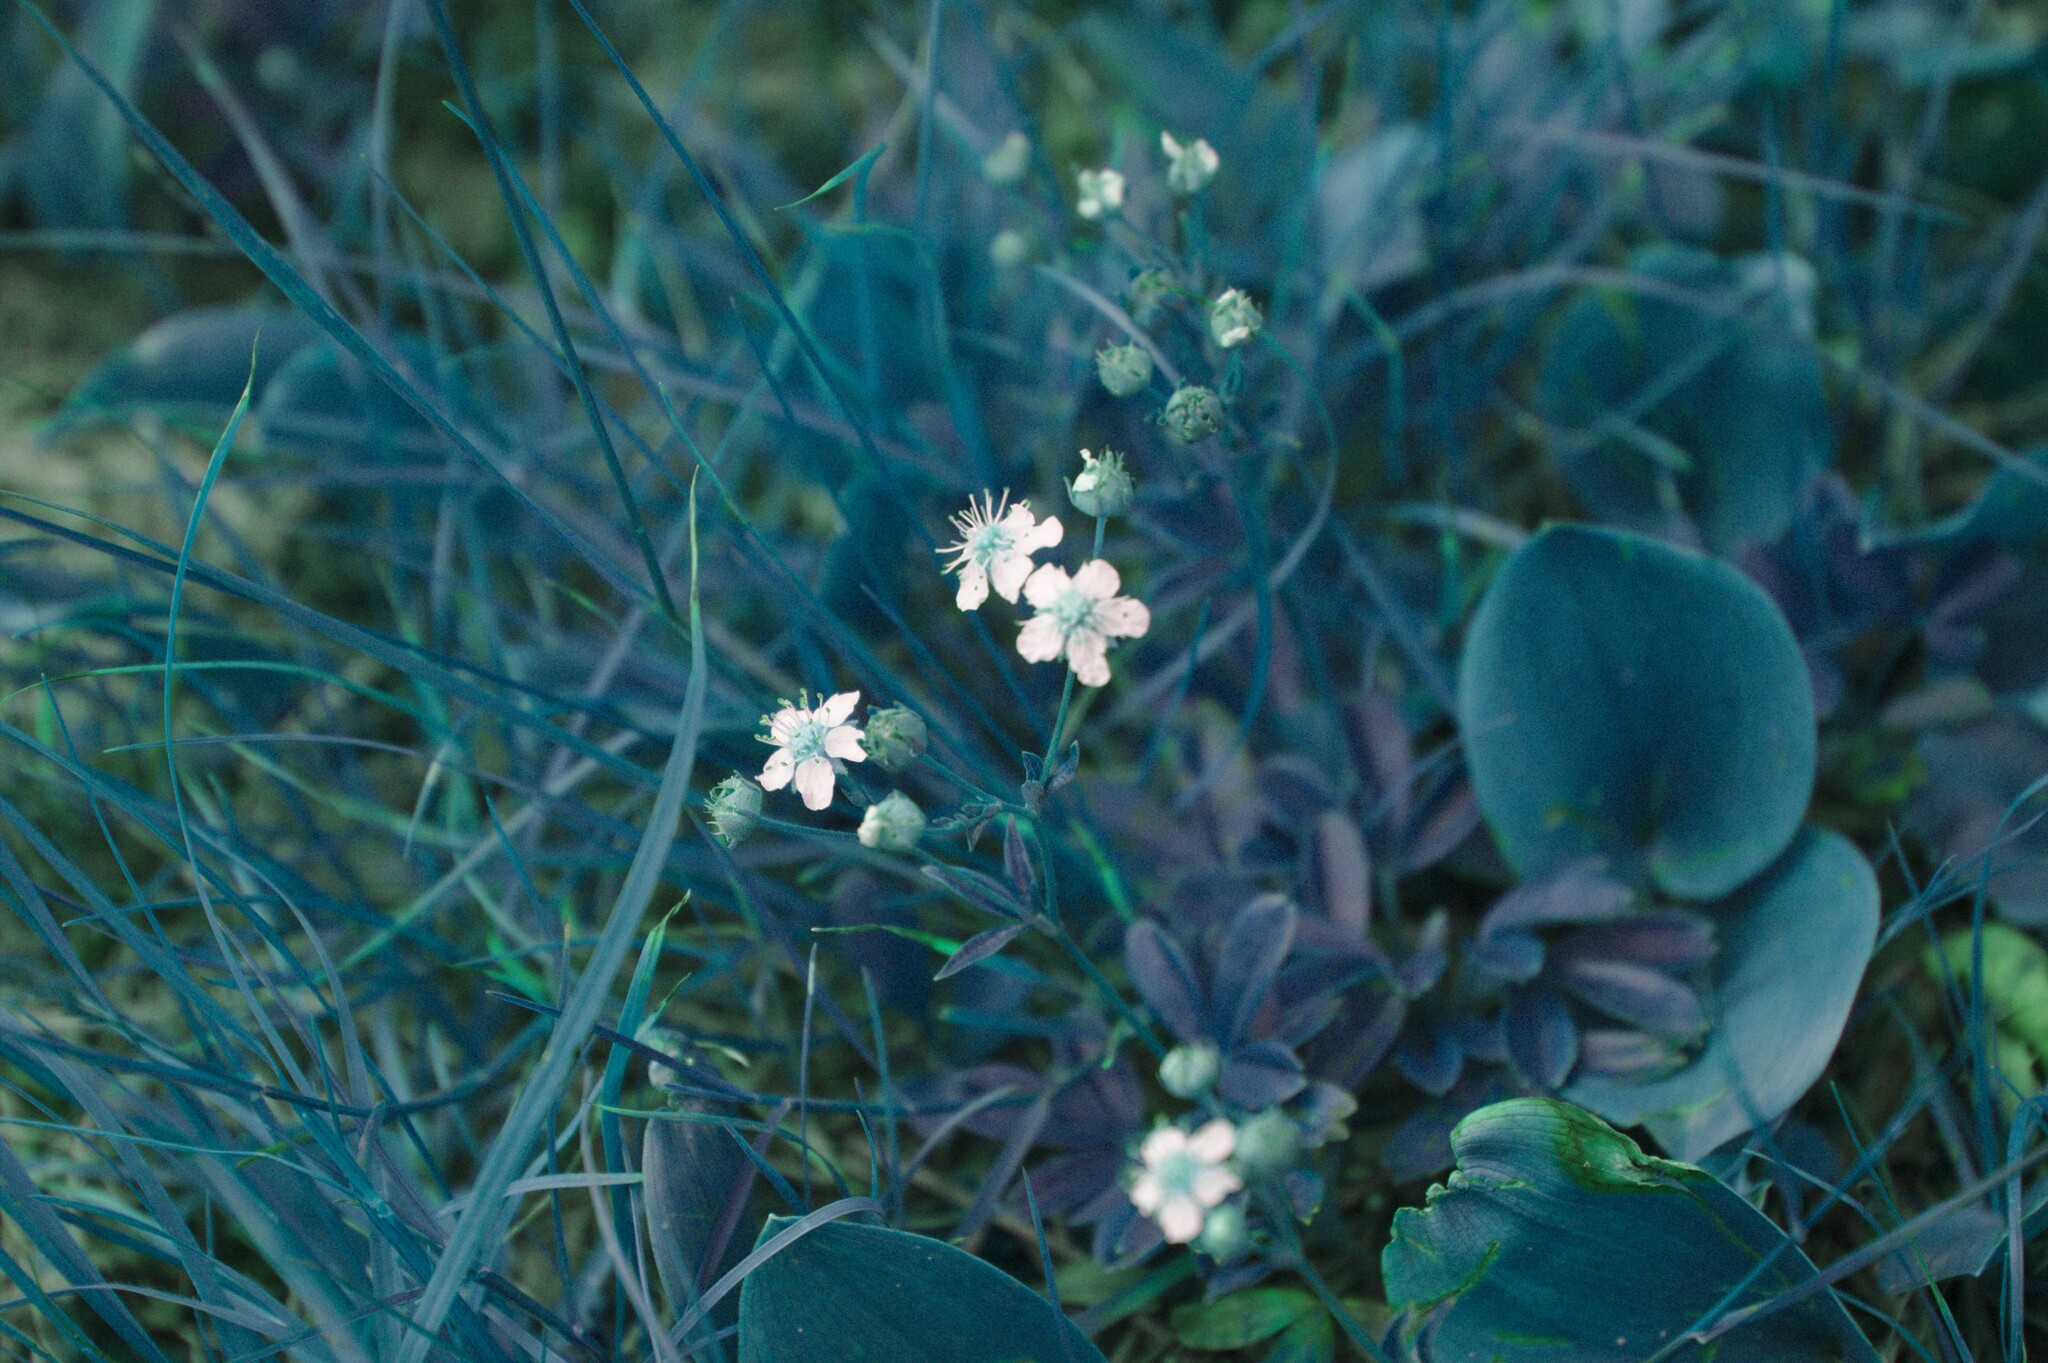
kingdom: Plantae
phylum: Tracheophyta
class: Magnoliopsida
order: Rosales
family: Rosaceae
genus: Sibbaldia
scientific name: Sibbaldia tridentata
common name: Three-toothed cinquefoil
